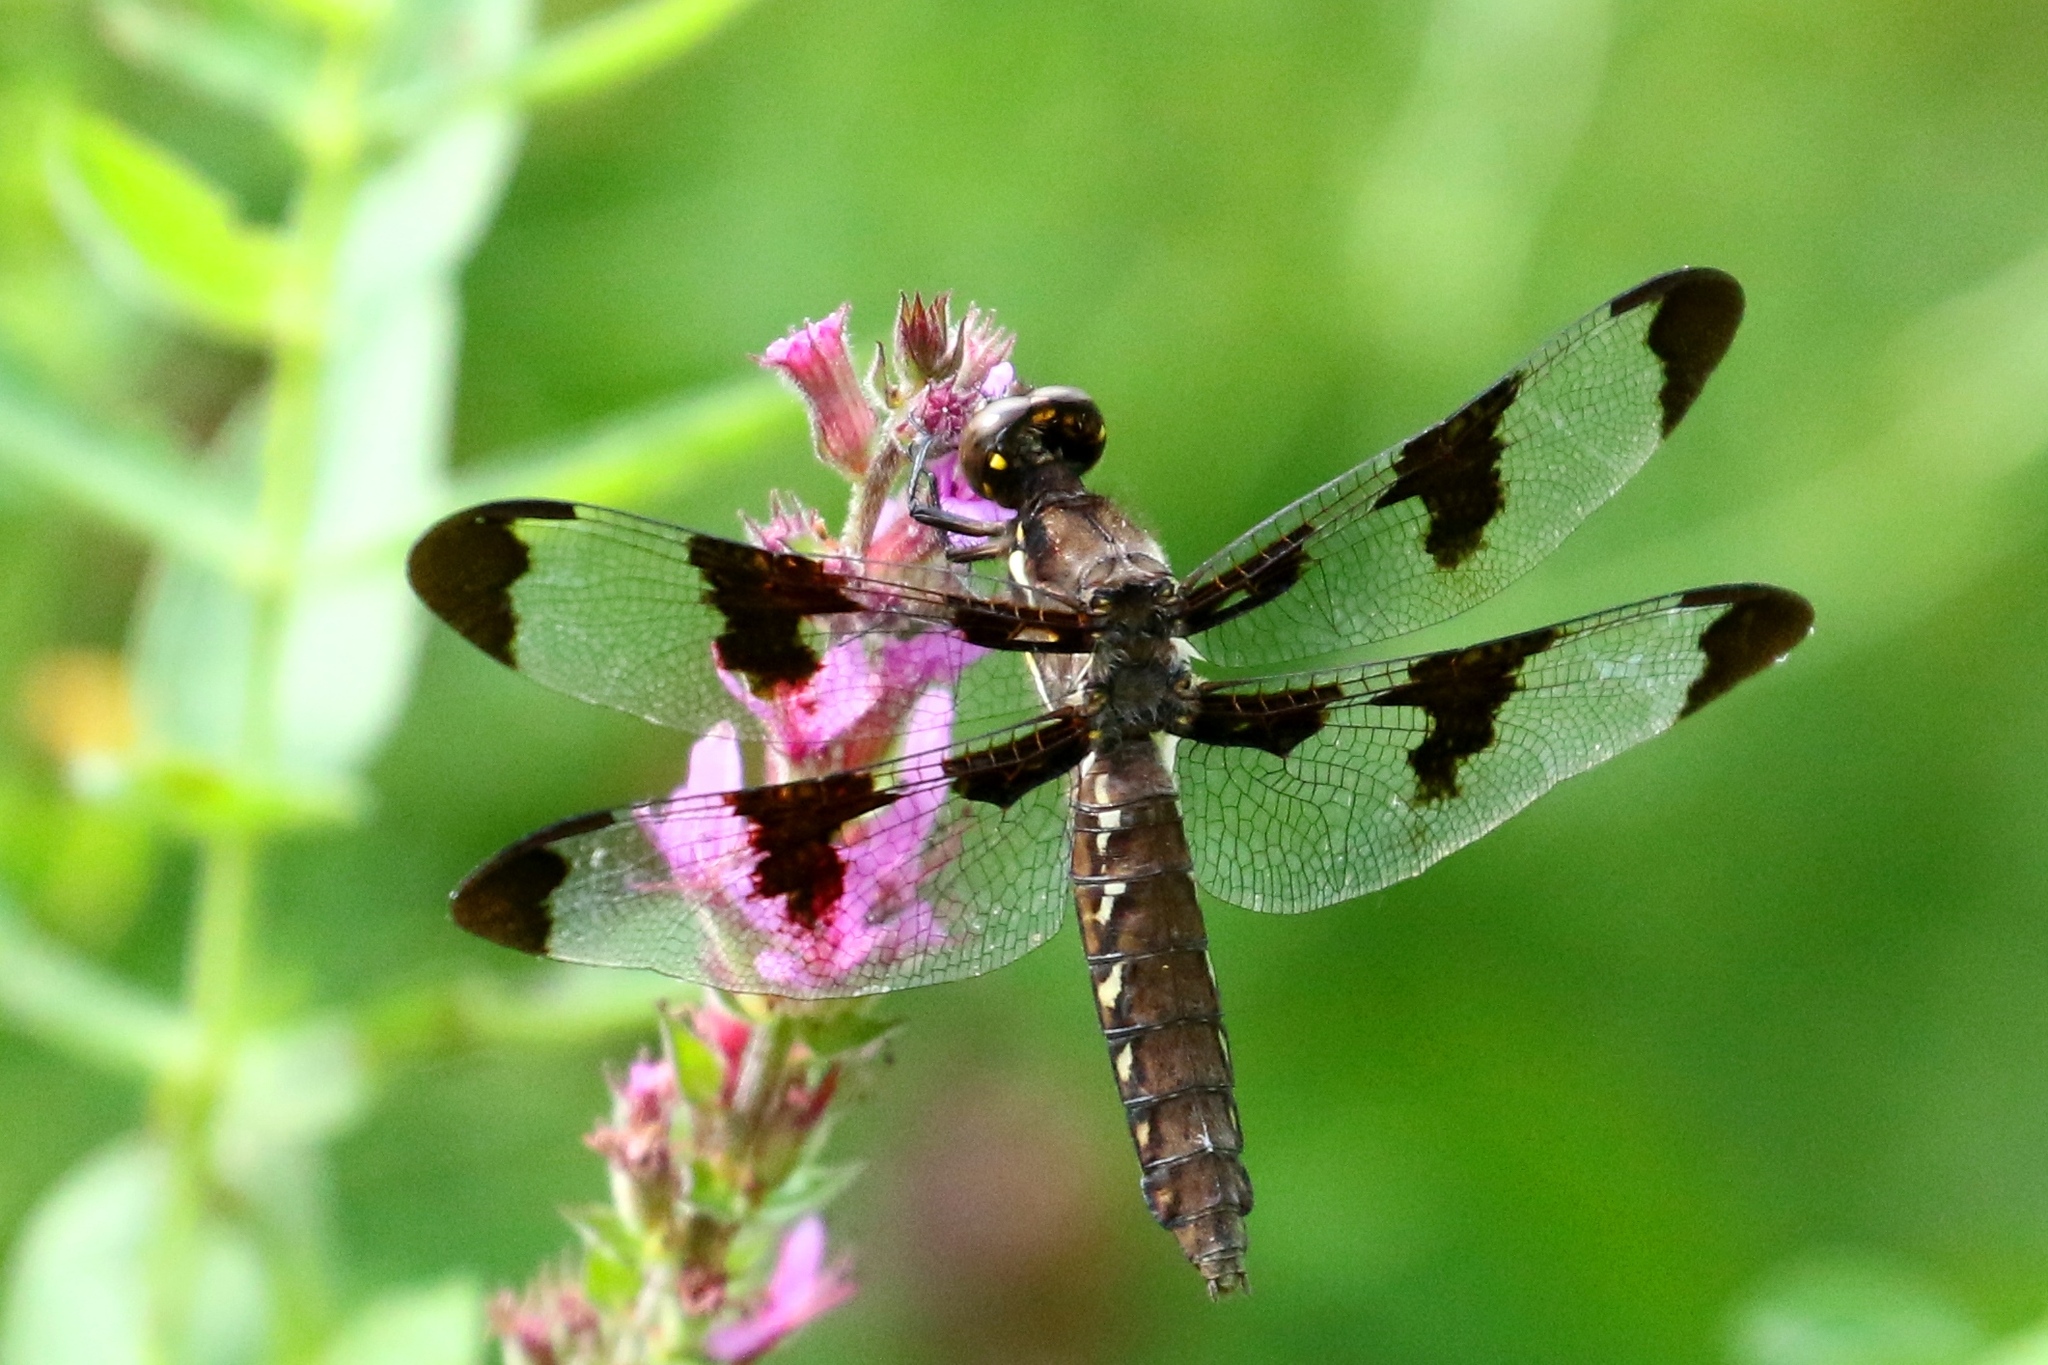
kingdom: Animalia
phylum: Arthropoda
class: Insecta
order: Odonata
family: Libellulidae
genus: Plathemis
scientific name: Plathemis lydia
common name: Common whitetail
